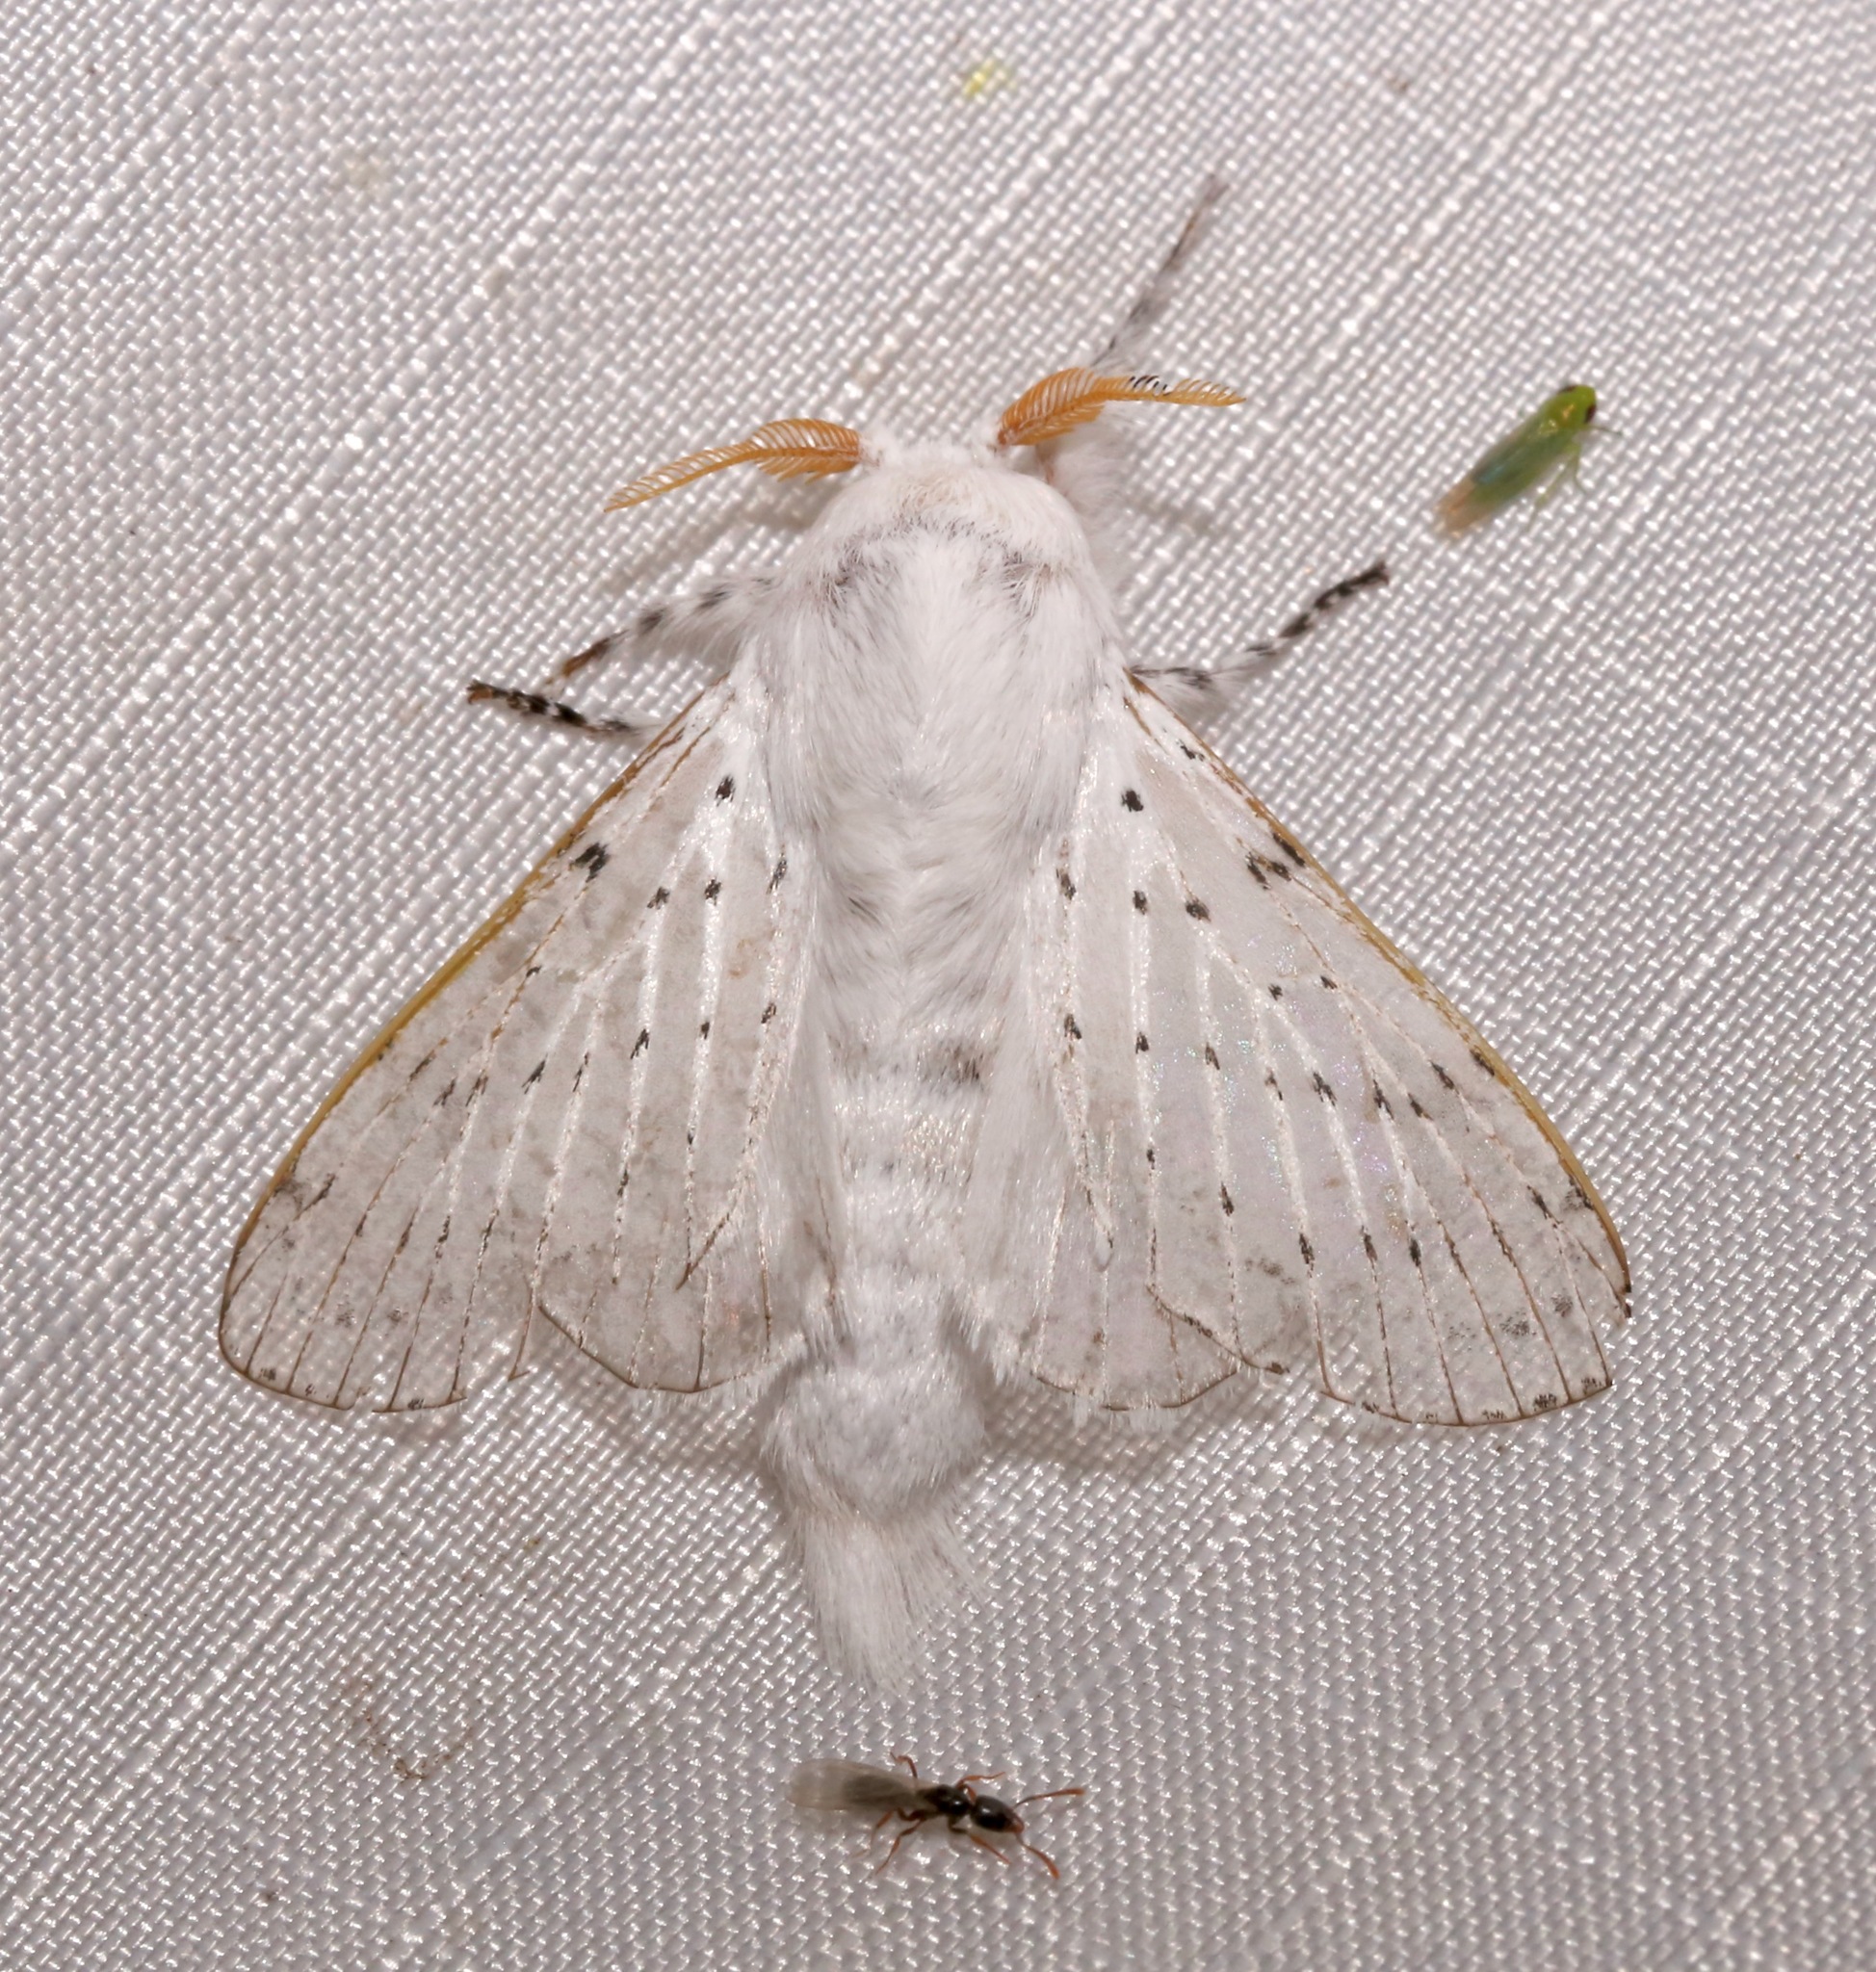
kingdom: Animalia
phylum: Arthropoda
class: Insecta
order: Lepidoptera
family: Lasiocampidae
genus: Artace
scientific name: Artace cribrarius
